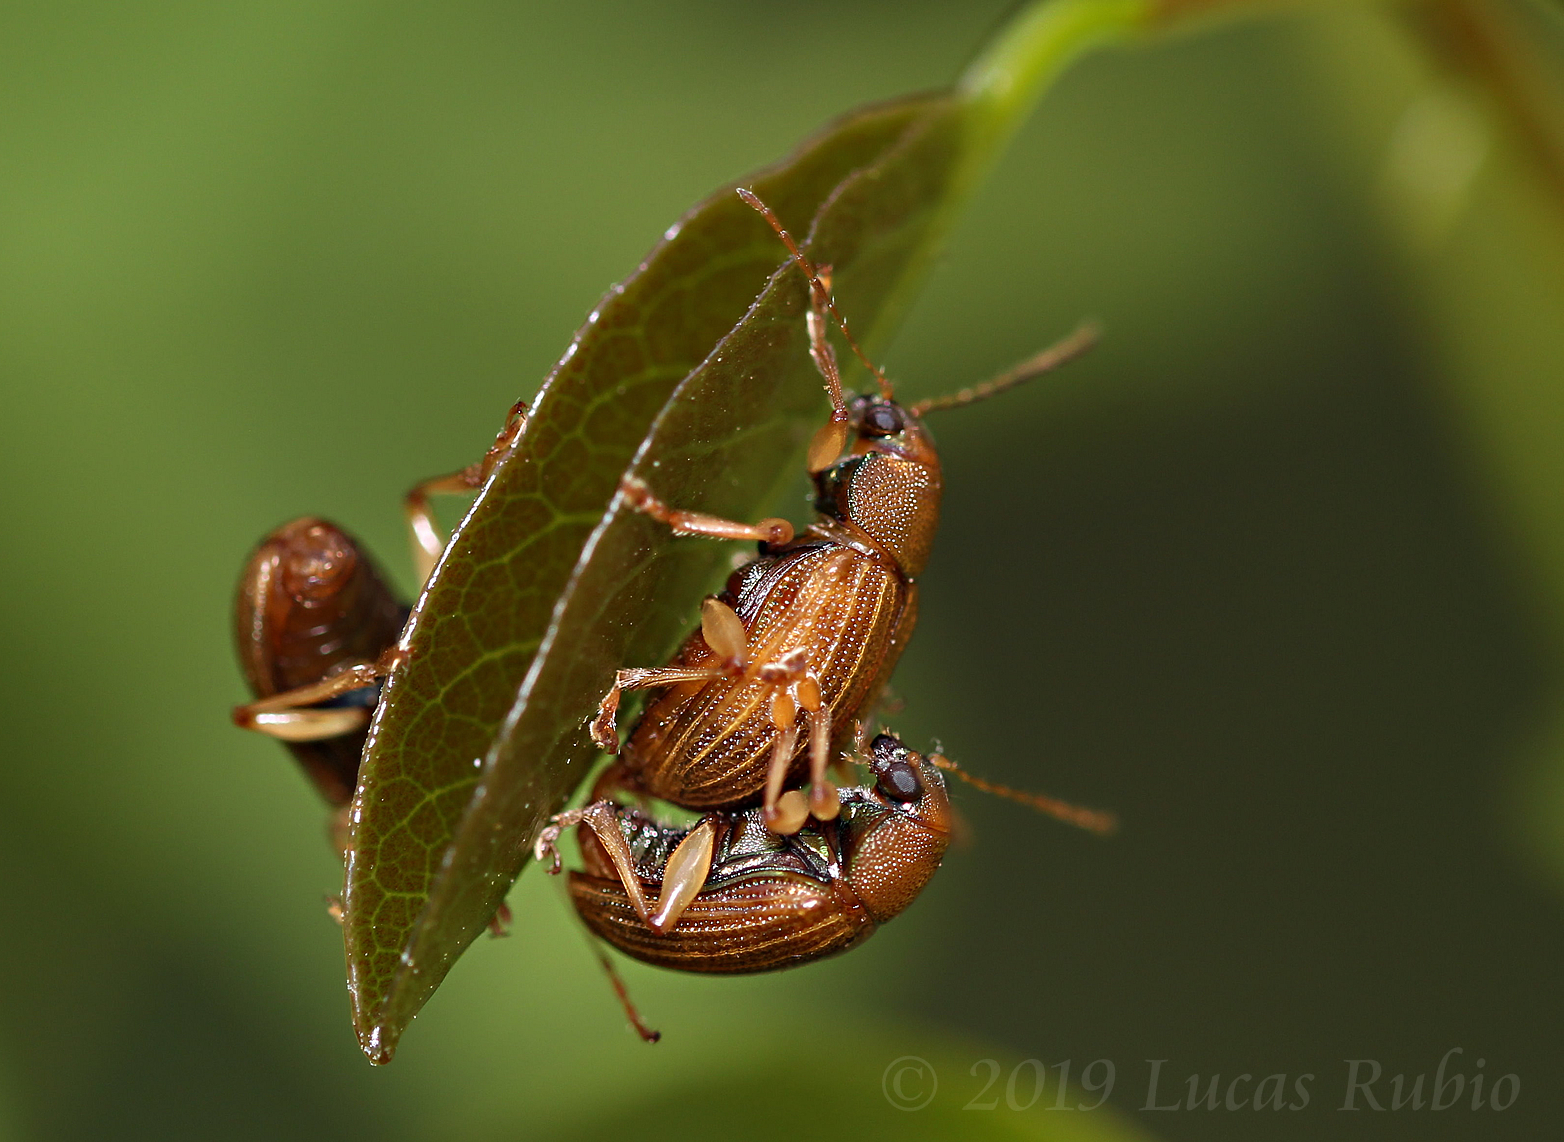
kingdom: Animalia
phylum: Arthropoda
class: Insecta
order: Coleoptera
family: Chrysomelidae
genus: Colaspis
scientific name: Colaspis
